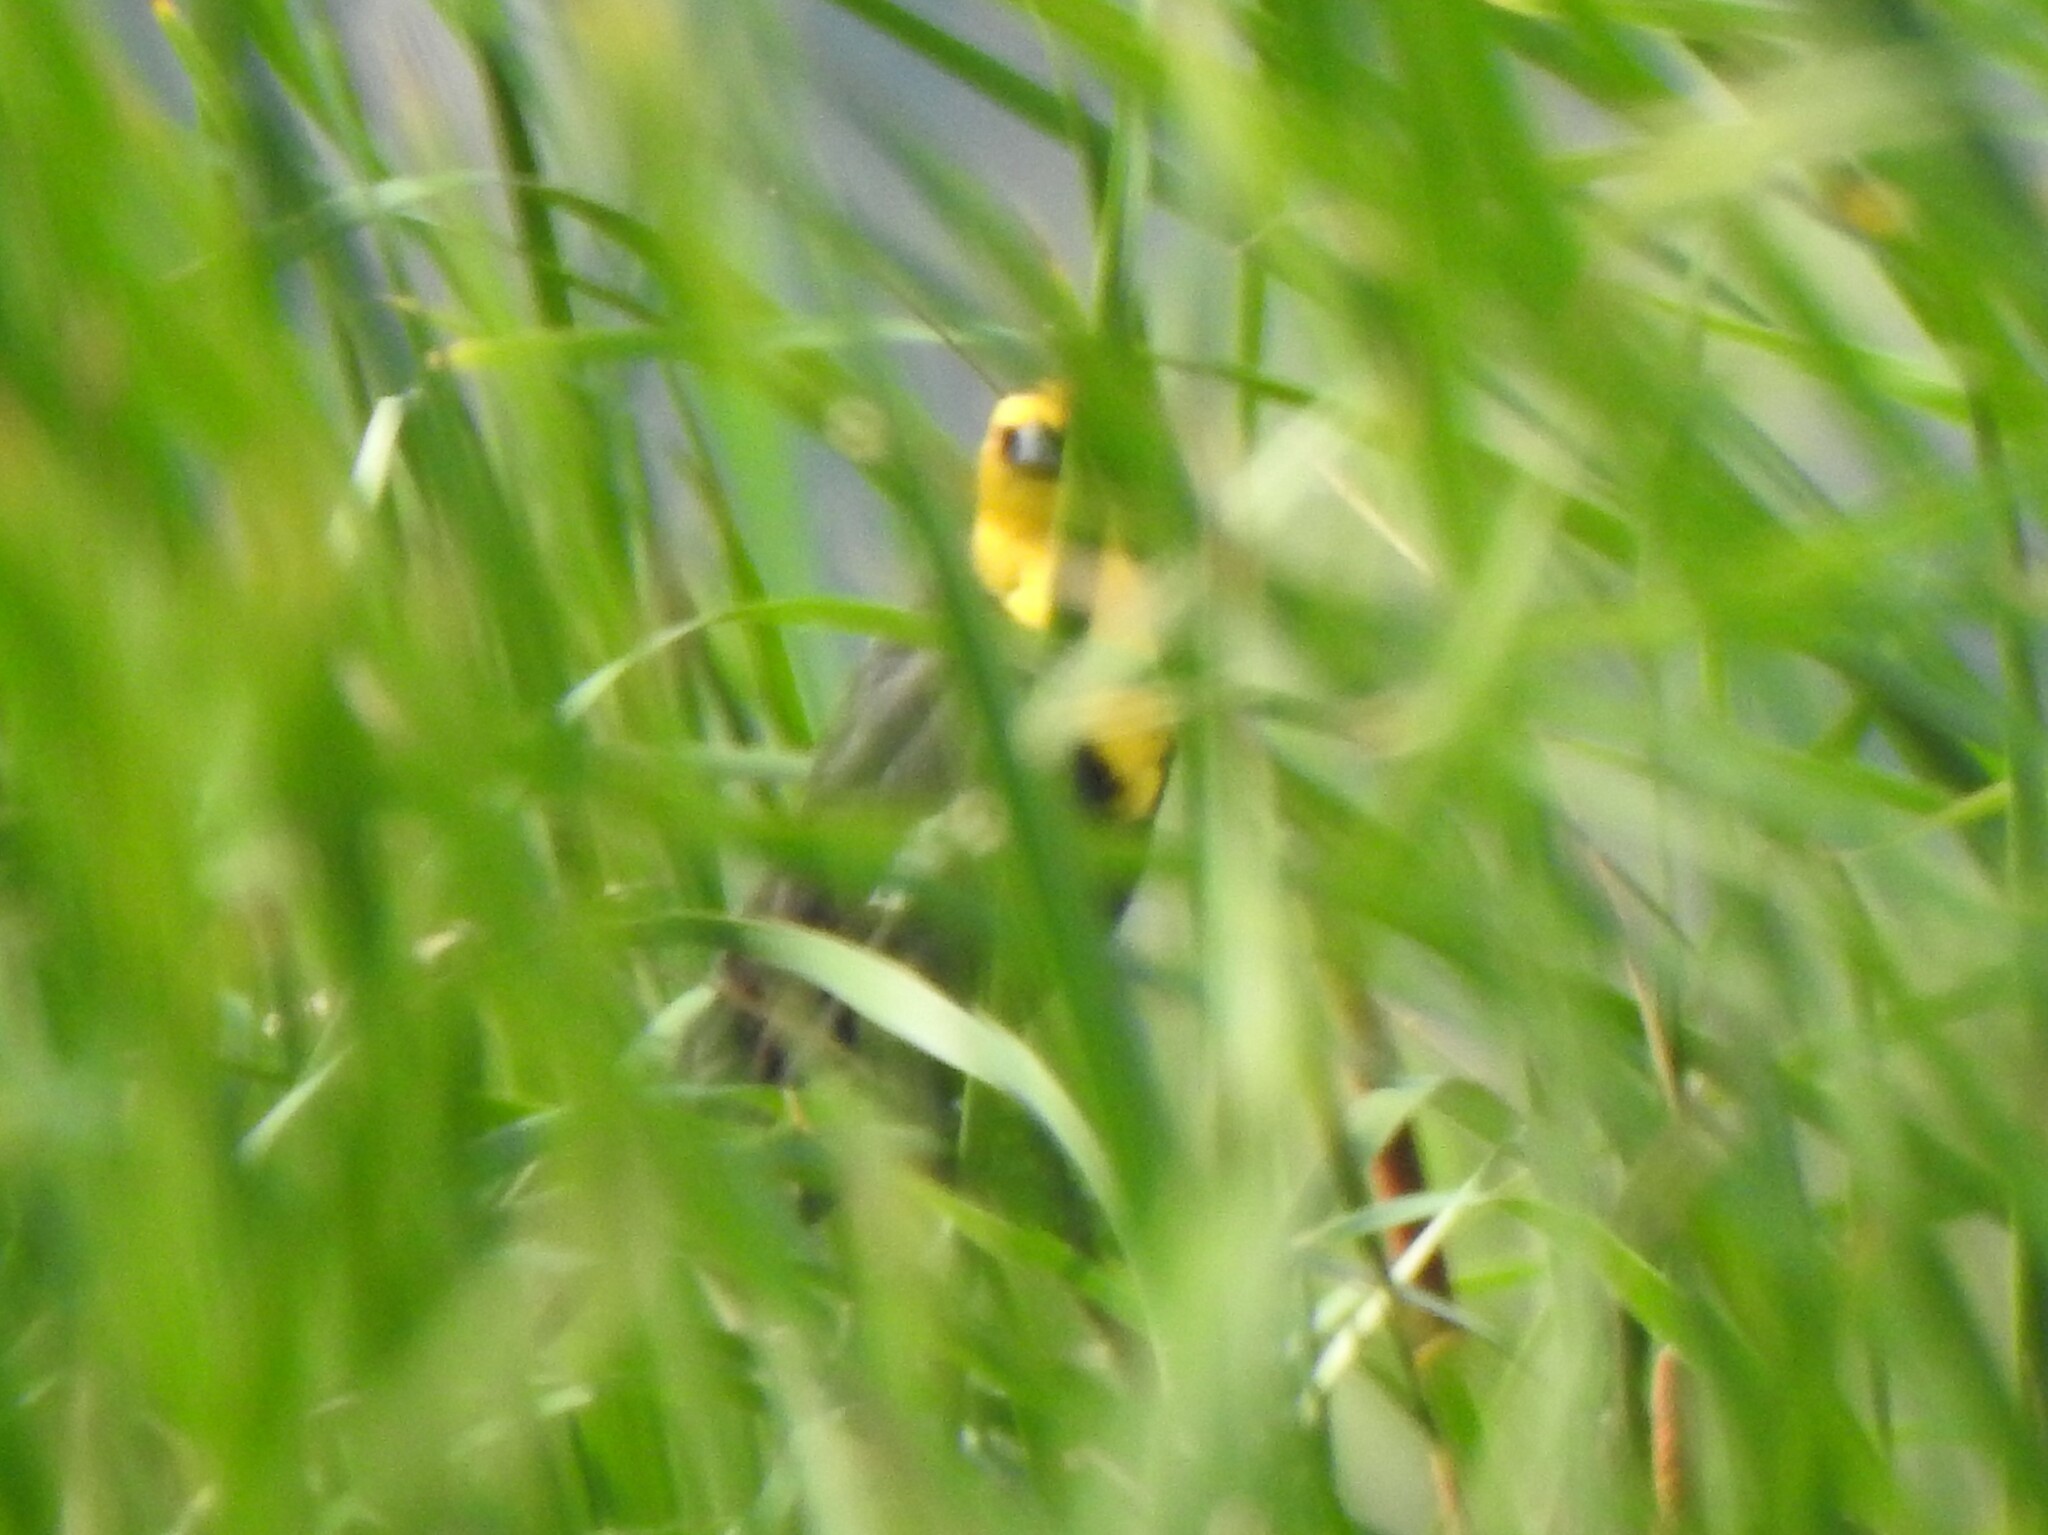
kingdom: Animalia
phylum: Chordata
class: Aves
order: Passeriformes
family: Icteridae
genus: Xanthocephalus
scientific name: Xanthocephalus xanthocephalus
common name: Yellow-headed blackbird
